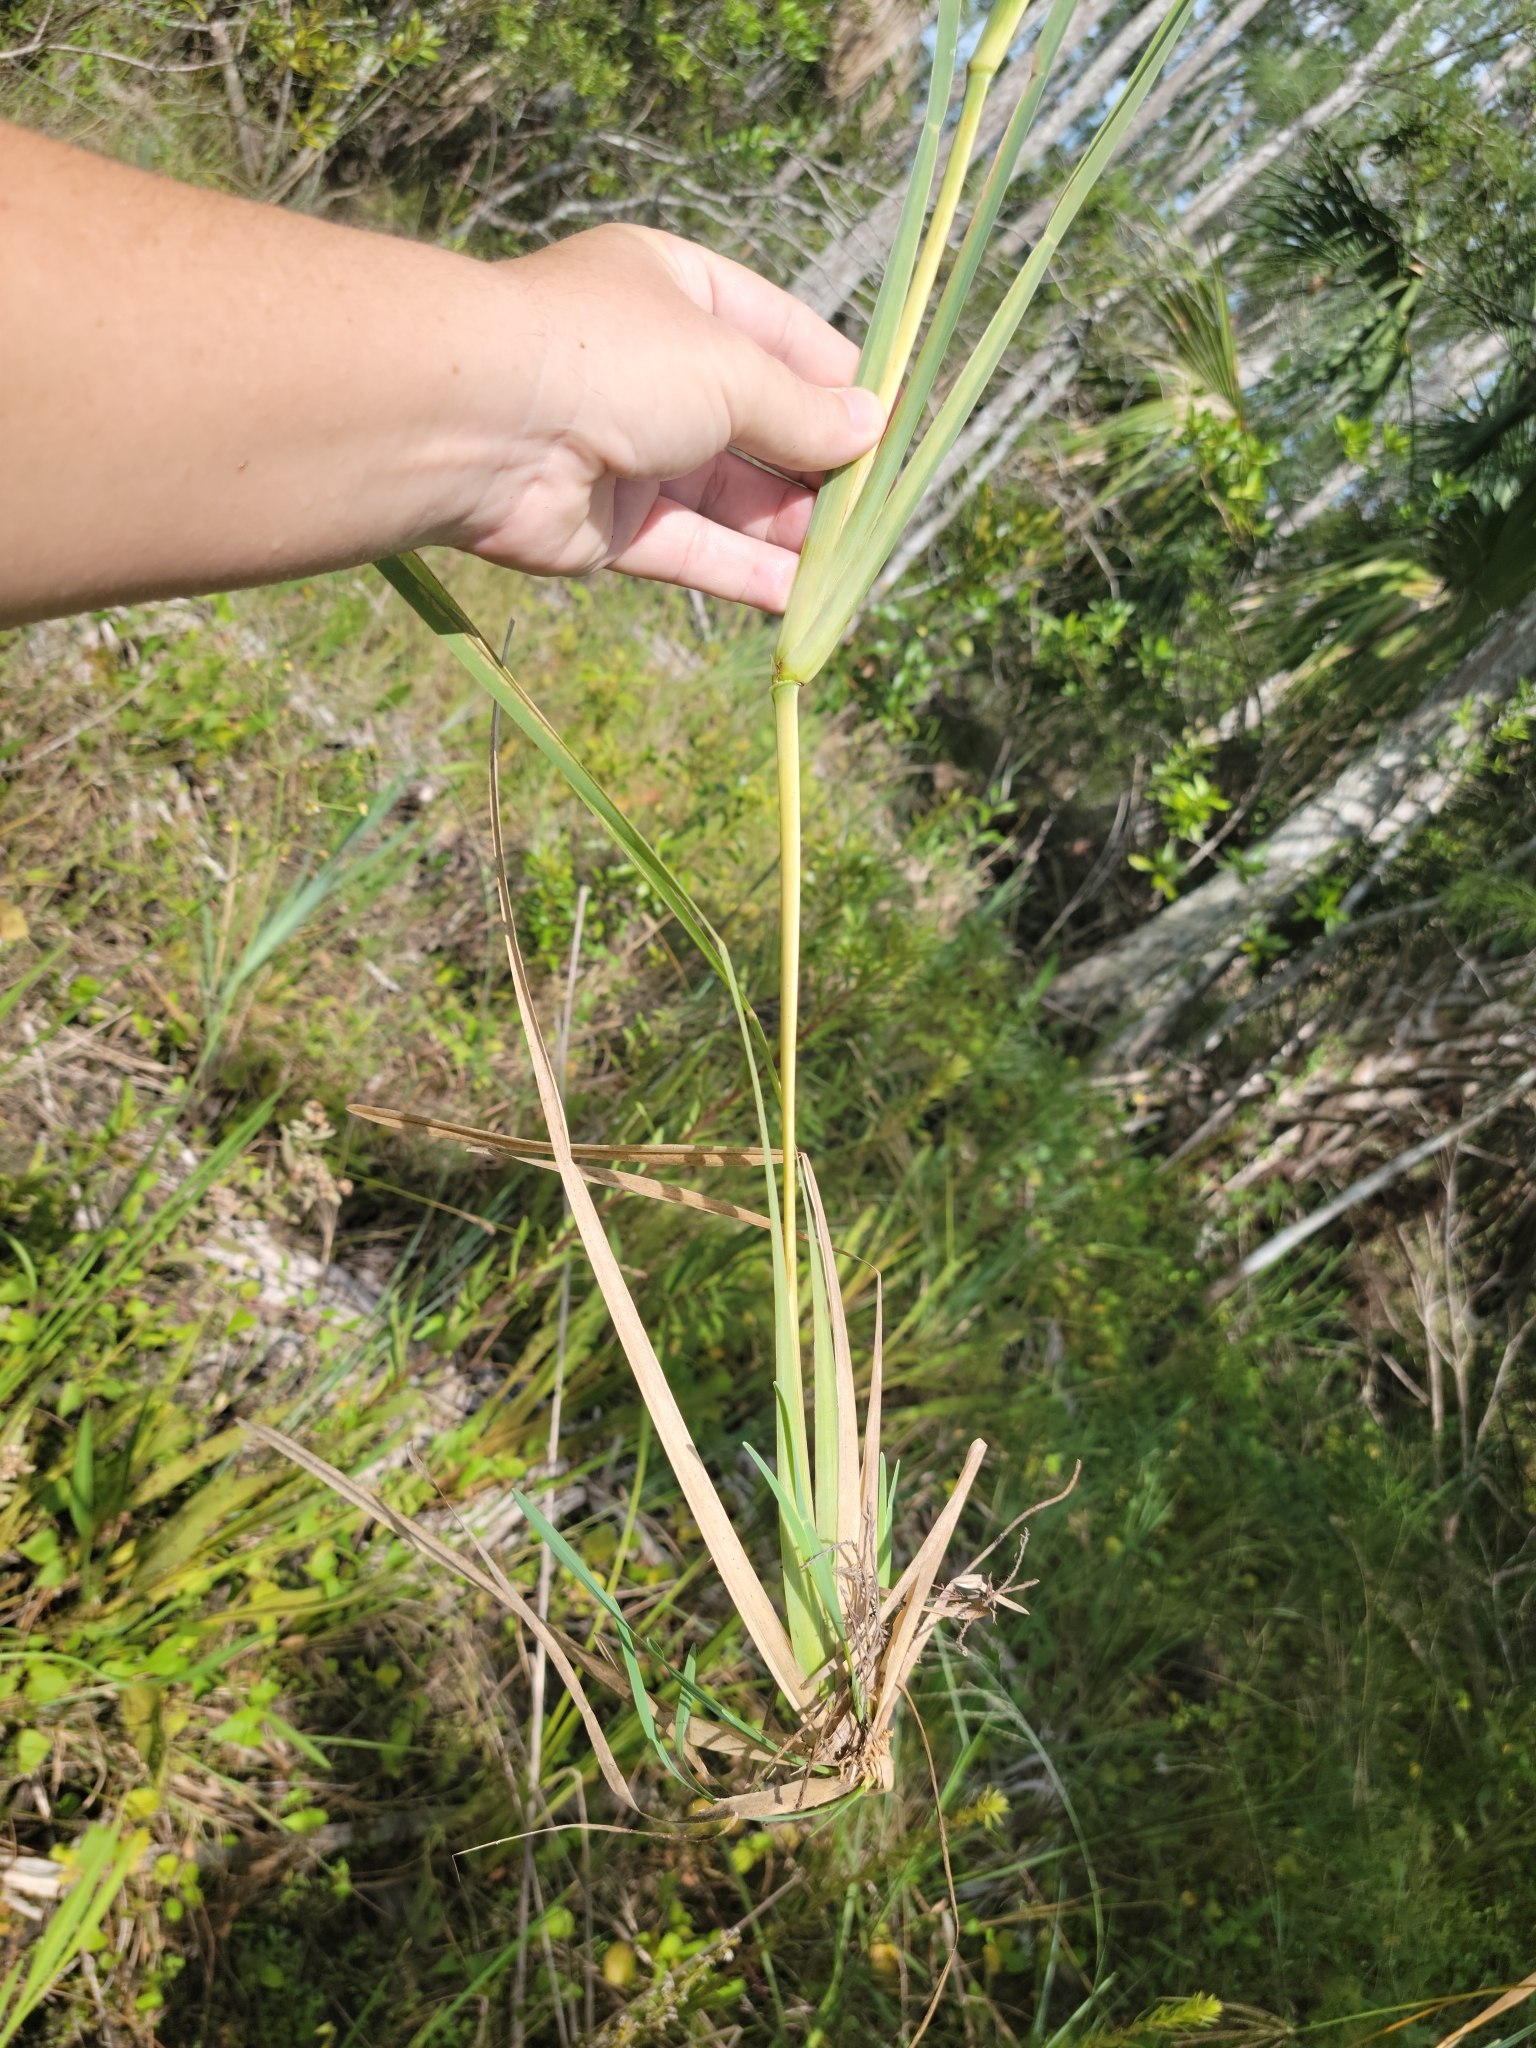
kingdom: Plantae
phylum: Tracheophyta
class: Liliopsida
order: Poales
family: Poaceae
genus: Eustachys
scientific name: Eustachys glauca
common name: Saltmarsh finger grass
